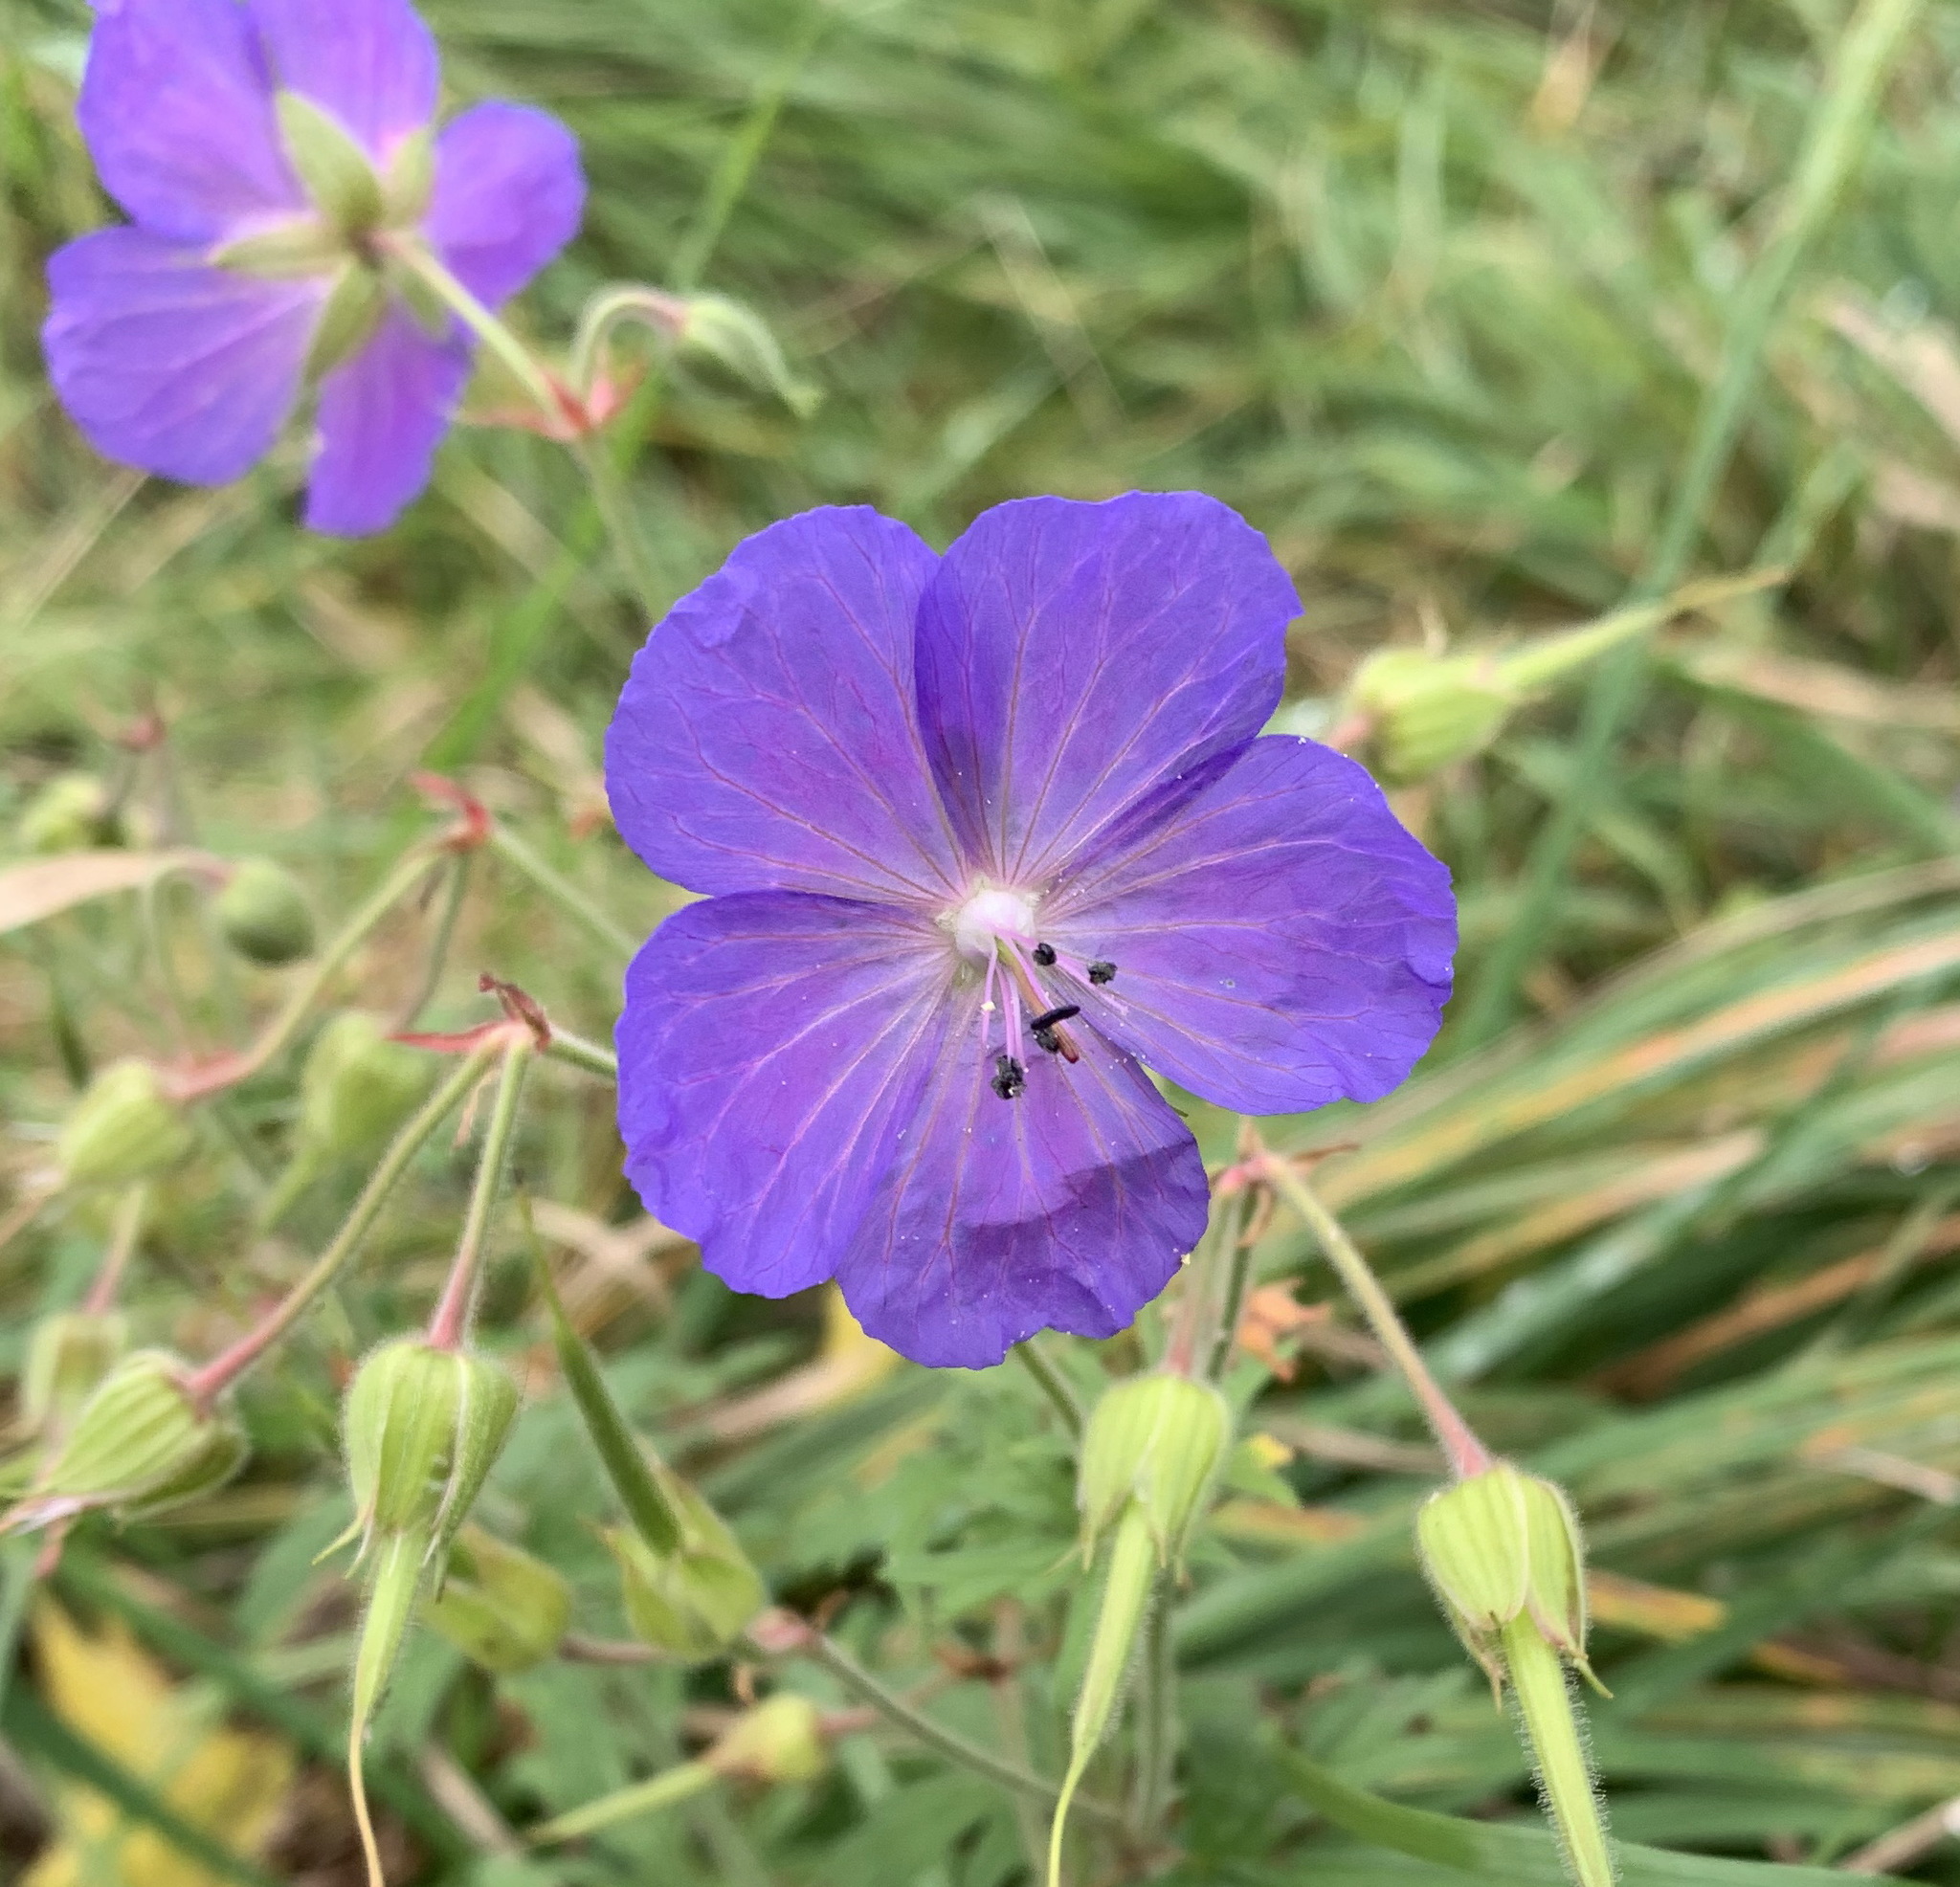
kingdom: Plantae
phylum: Tracheophyta
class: Magnoliopsida
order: Geraniales
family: Geraniaceae
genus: Geranium
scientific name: Geranium pratense
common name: Meadow crane's-bill
